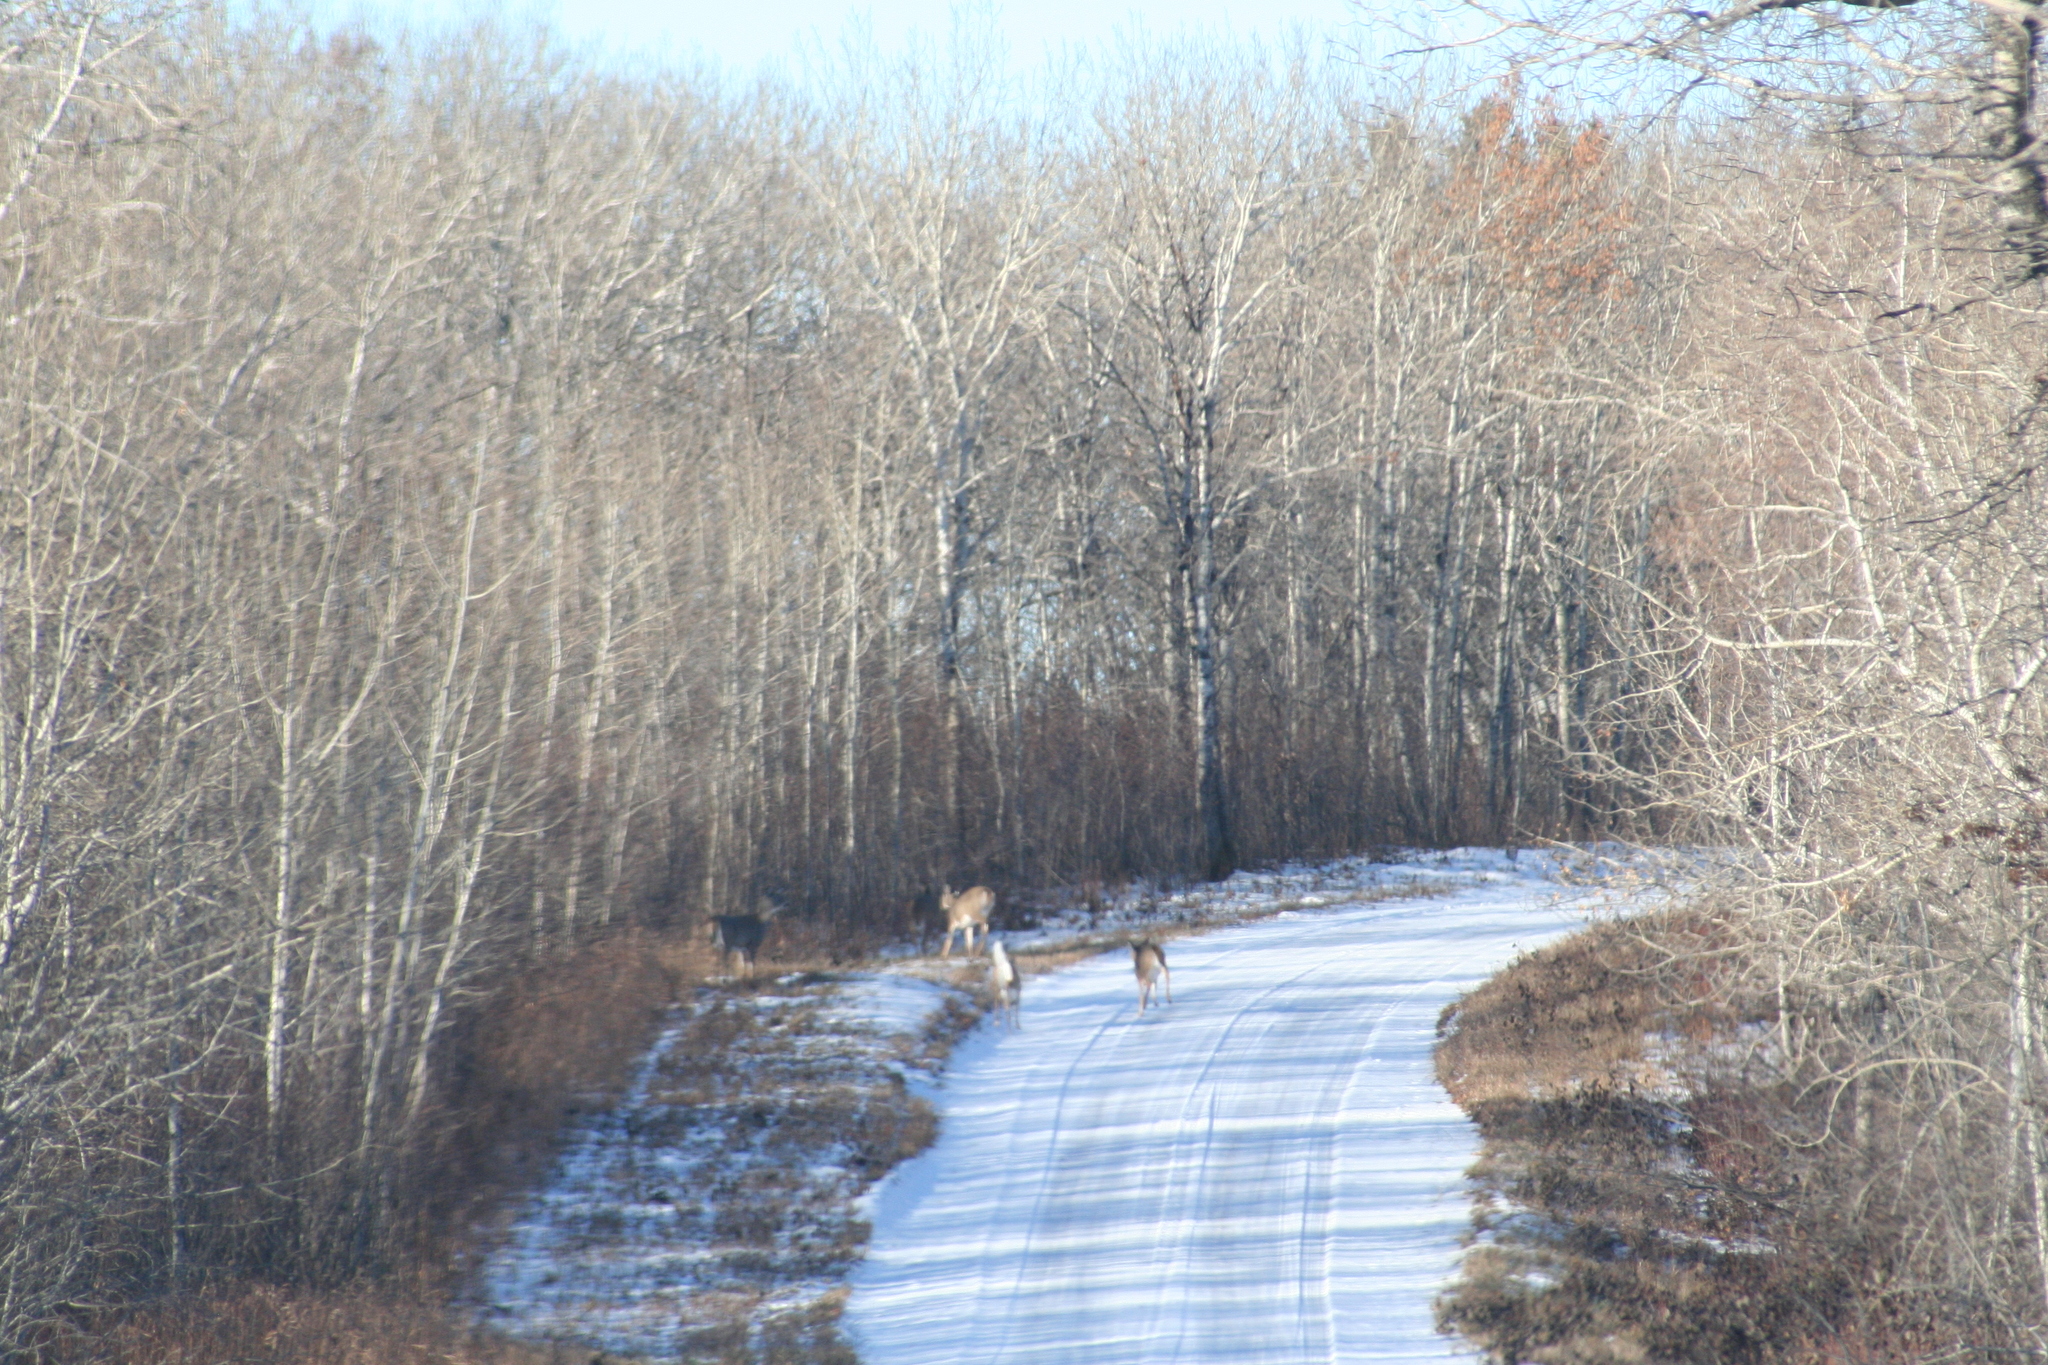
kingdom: Animalia
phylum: Chordata
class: Mammalia
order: Artiodactyla
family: Cervidae
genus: Odocoileus
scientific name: Odocoileus virginianus
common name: White-tailed deer
